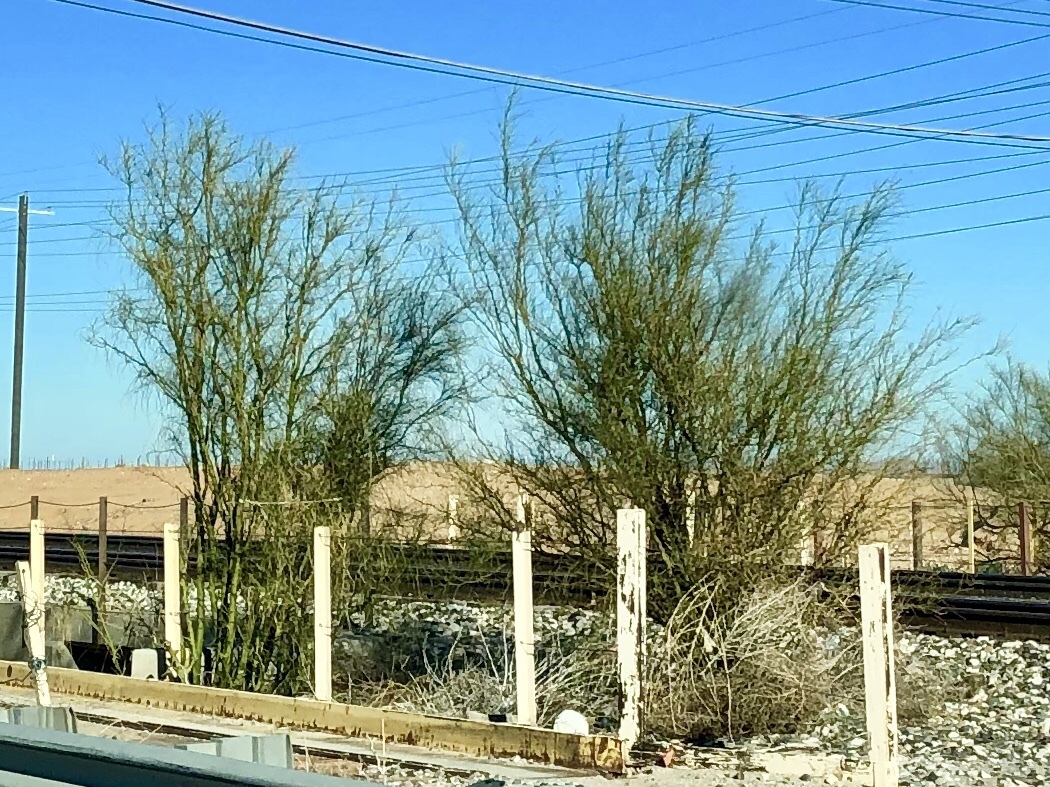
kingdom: Plantae
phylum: Tracheophyta
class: Magnoliopsida
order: Fabales
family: Fabaceae
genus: Parkinsonia
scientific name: Parkinsonia aculeata
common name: Jerusalem thorn
